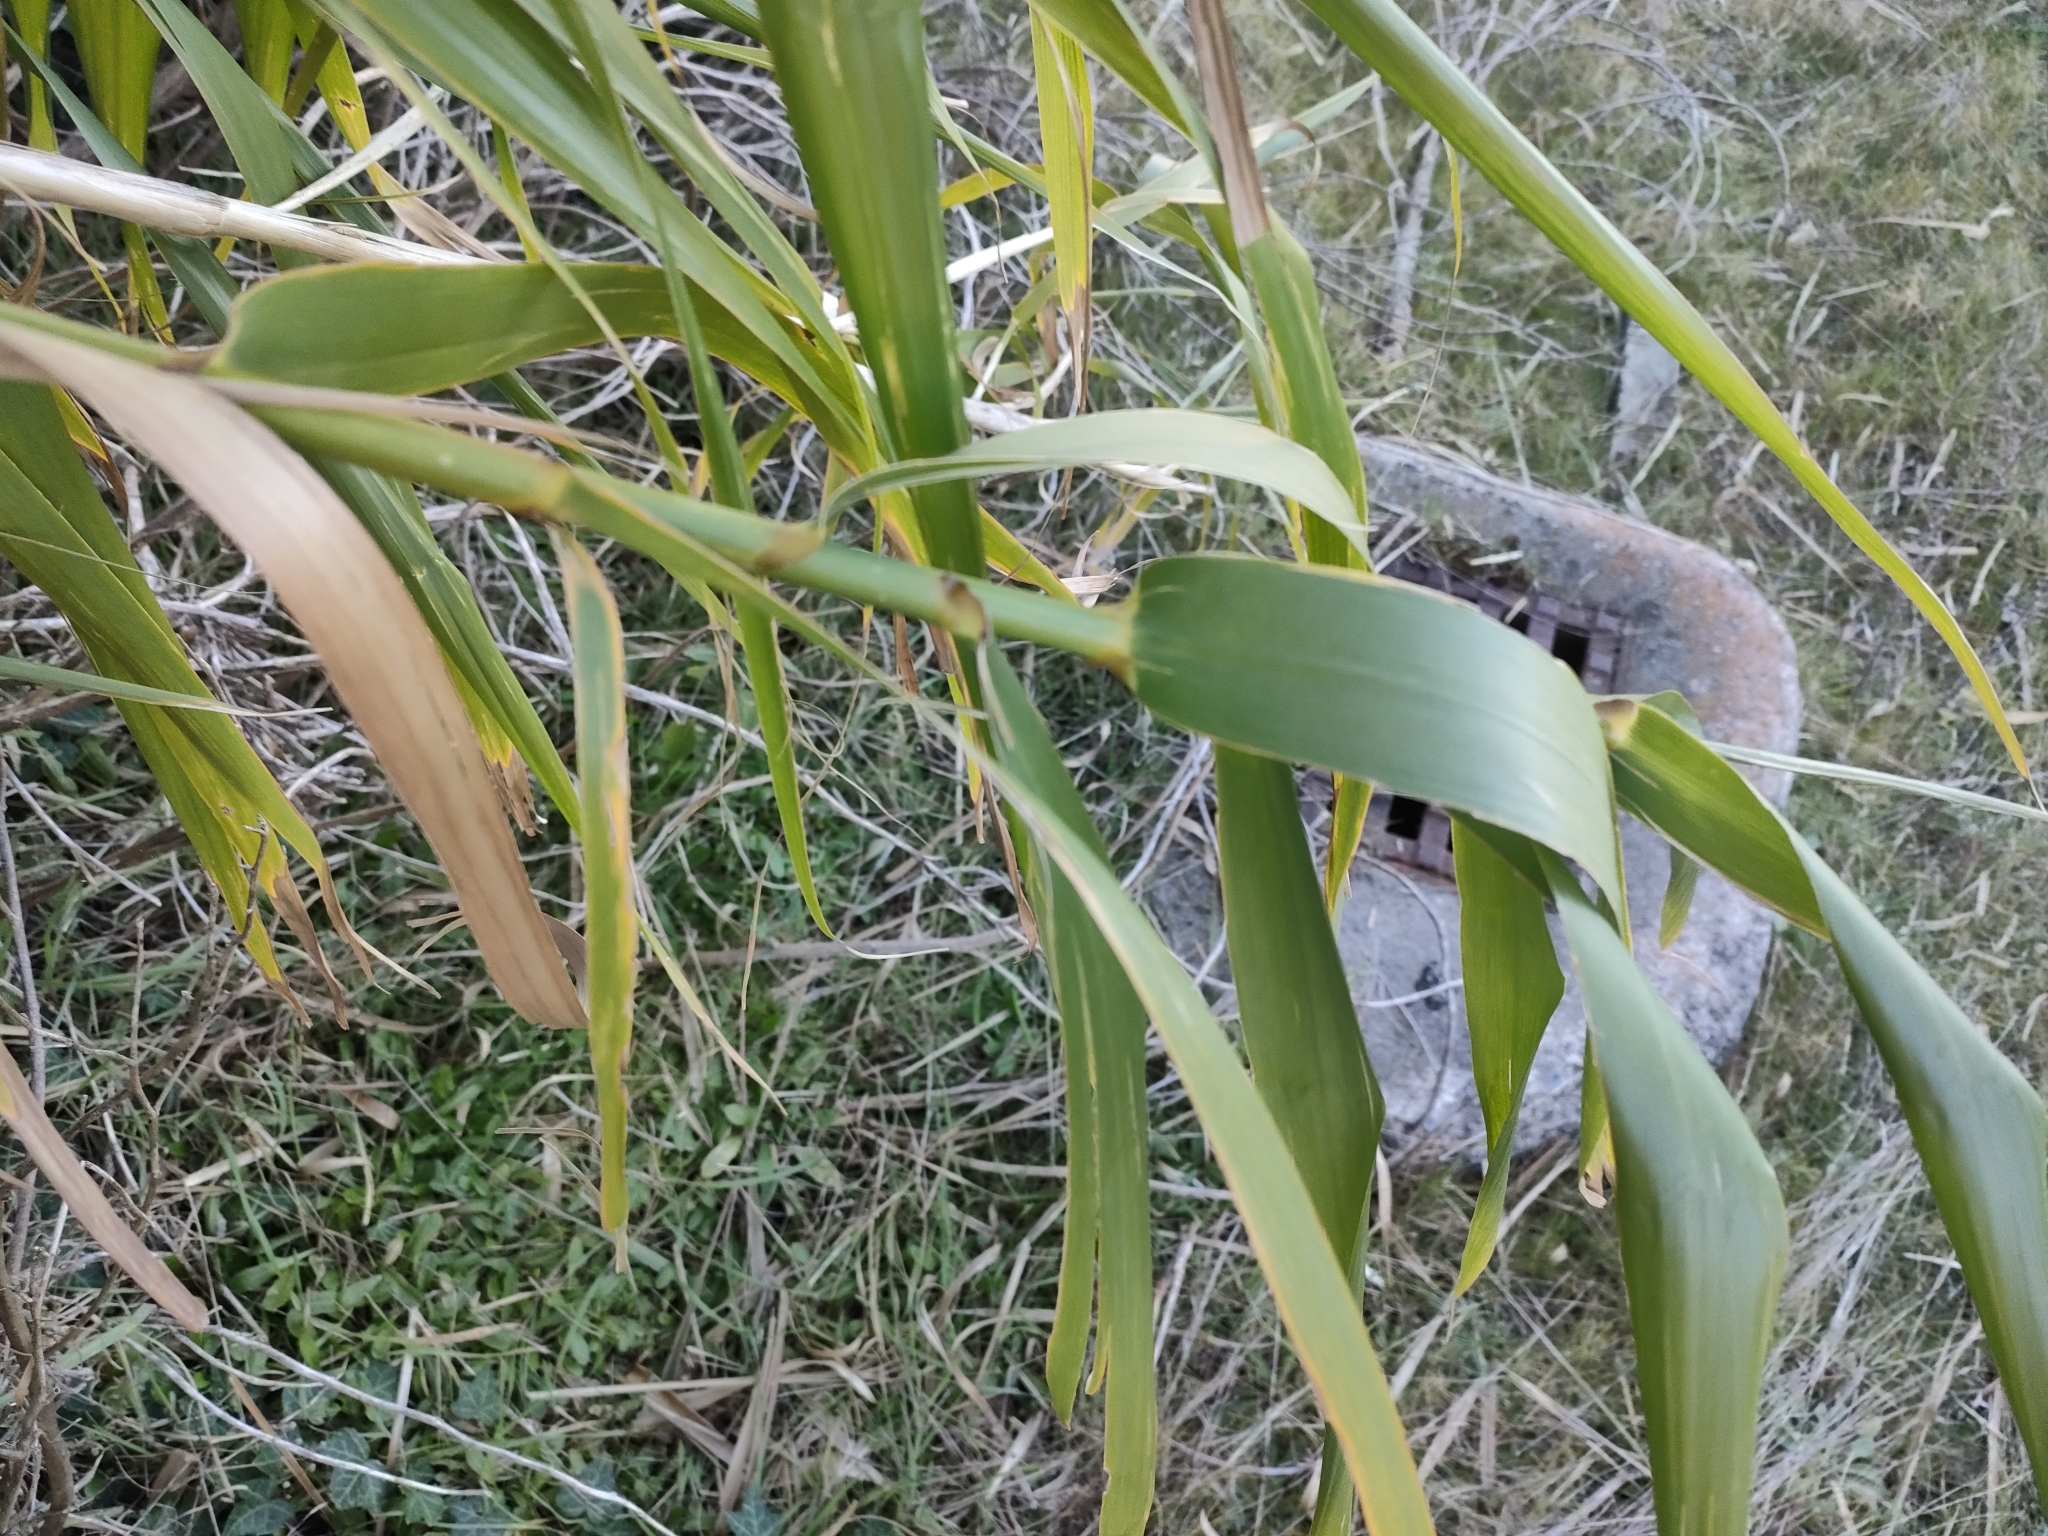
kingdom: Plantae
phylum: Tracheophyta
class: Liliopsida
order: Poales
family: Poaceae
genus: Arundo
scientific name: Arundo donax
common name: Giant reed
